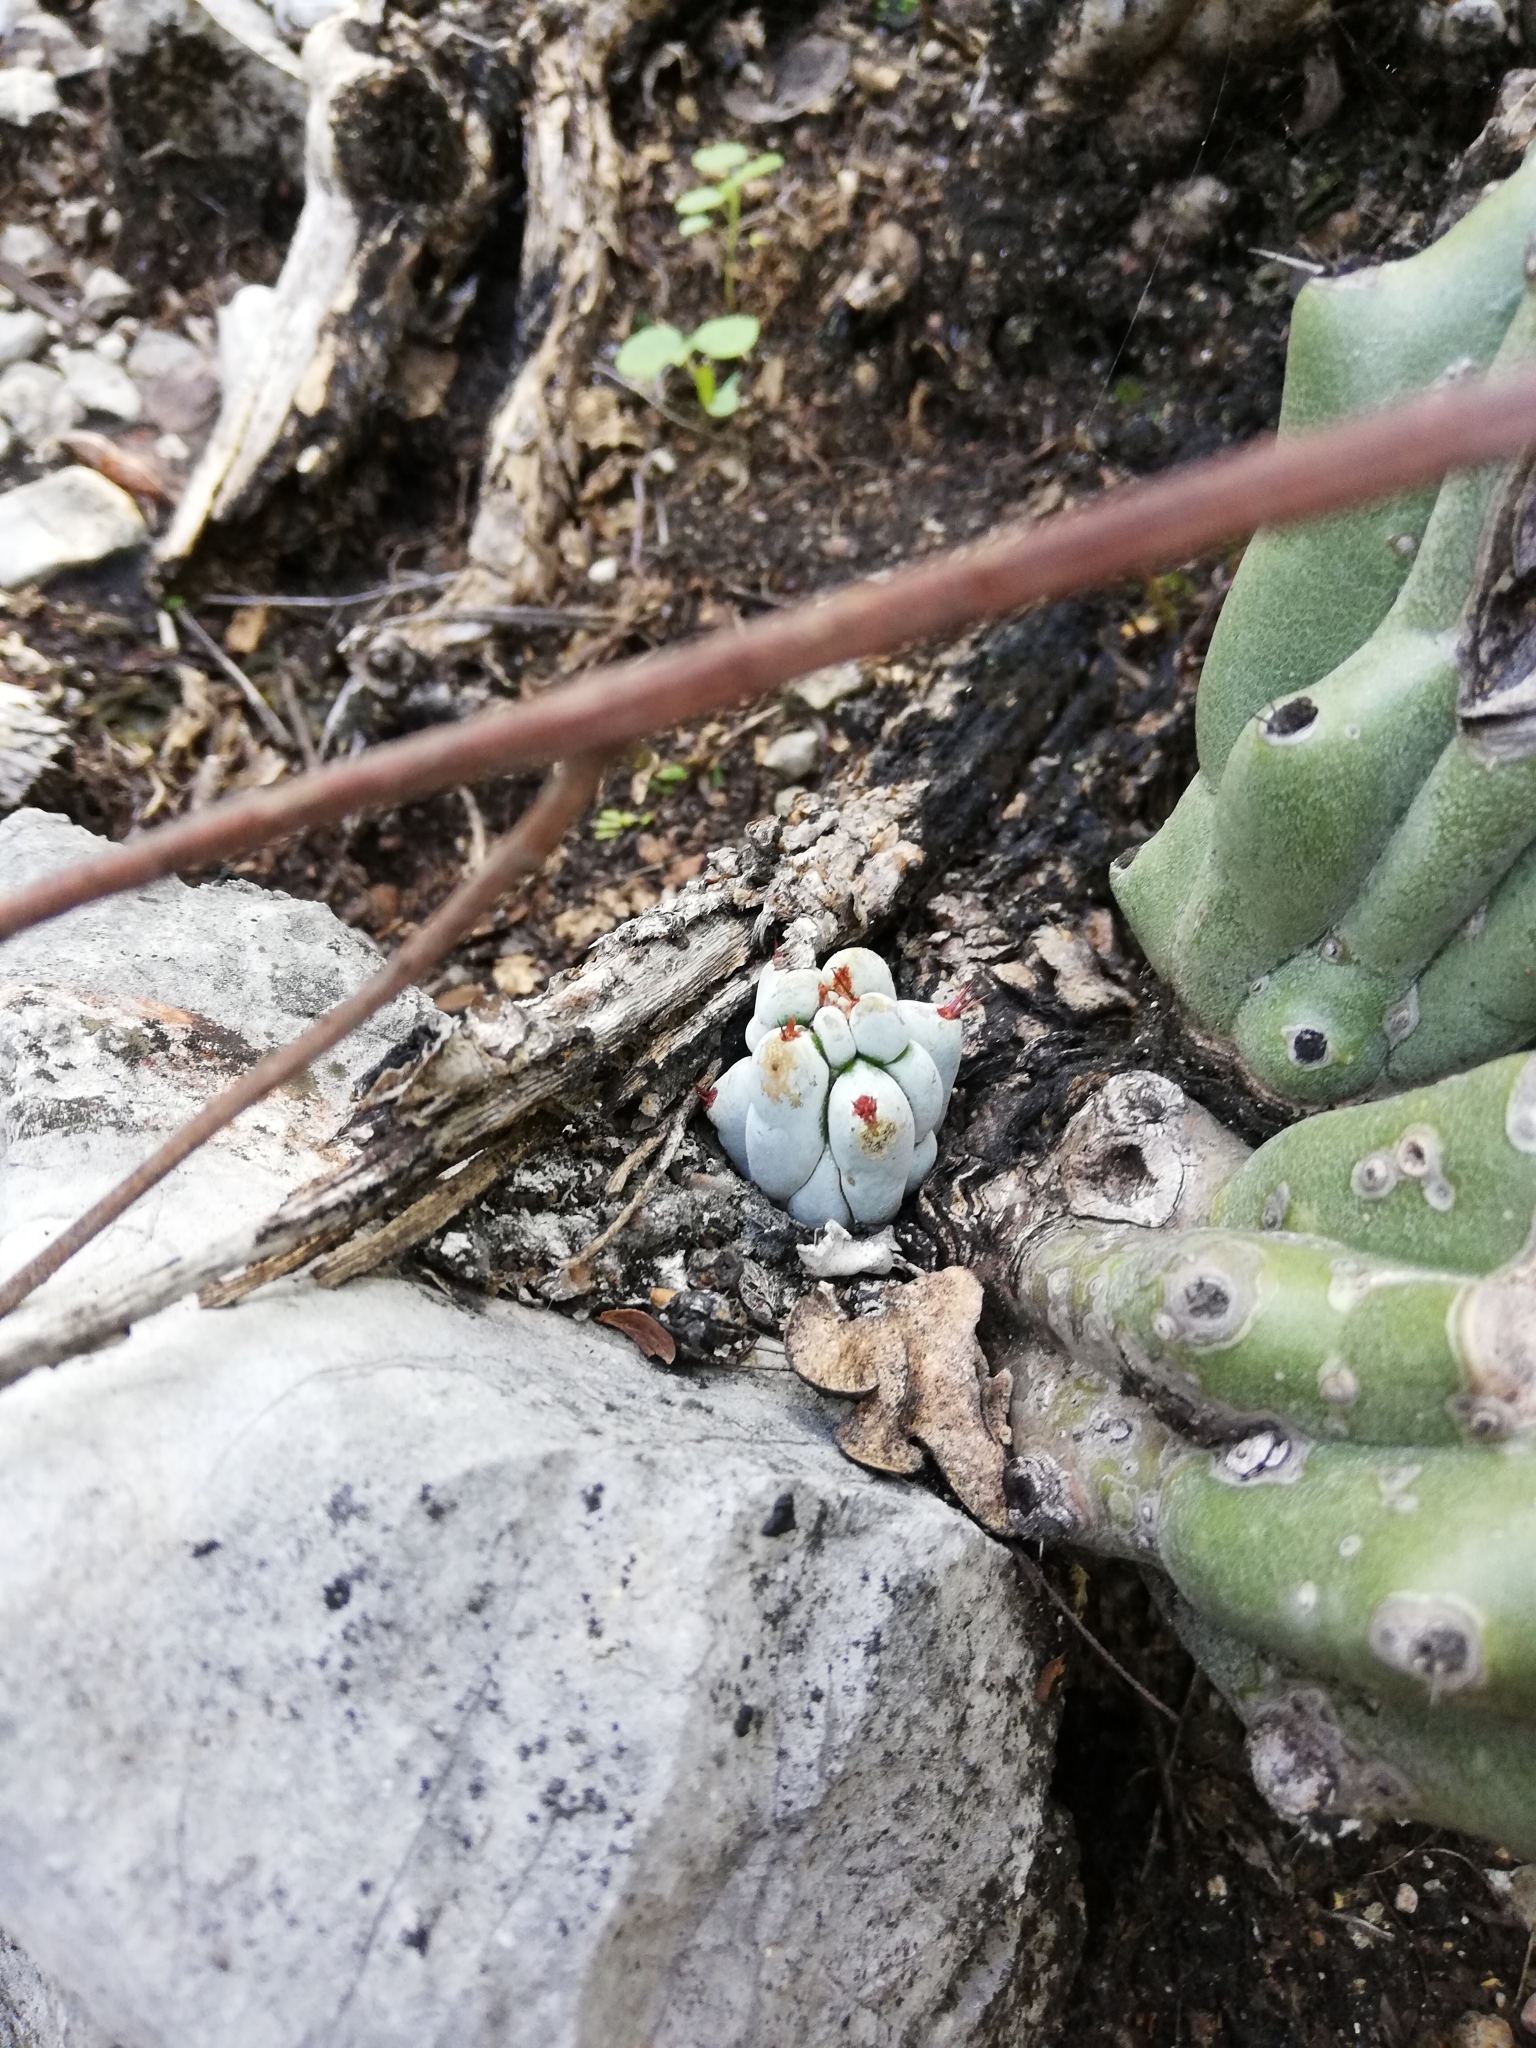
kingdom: Plantae
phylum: Tracheophyta
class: Magnoliopsida
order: Caryophyllales
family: Cactaceae
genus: Stenocereus
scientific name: Stenocereus beneckei
